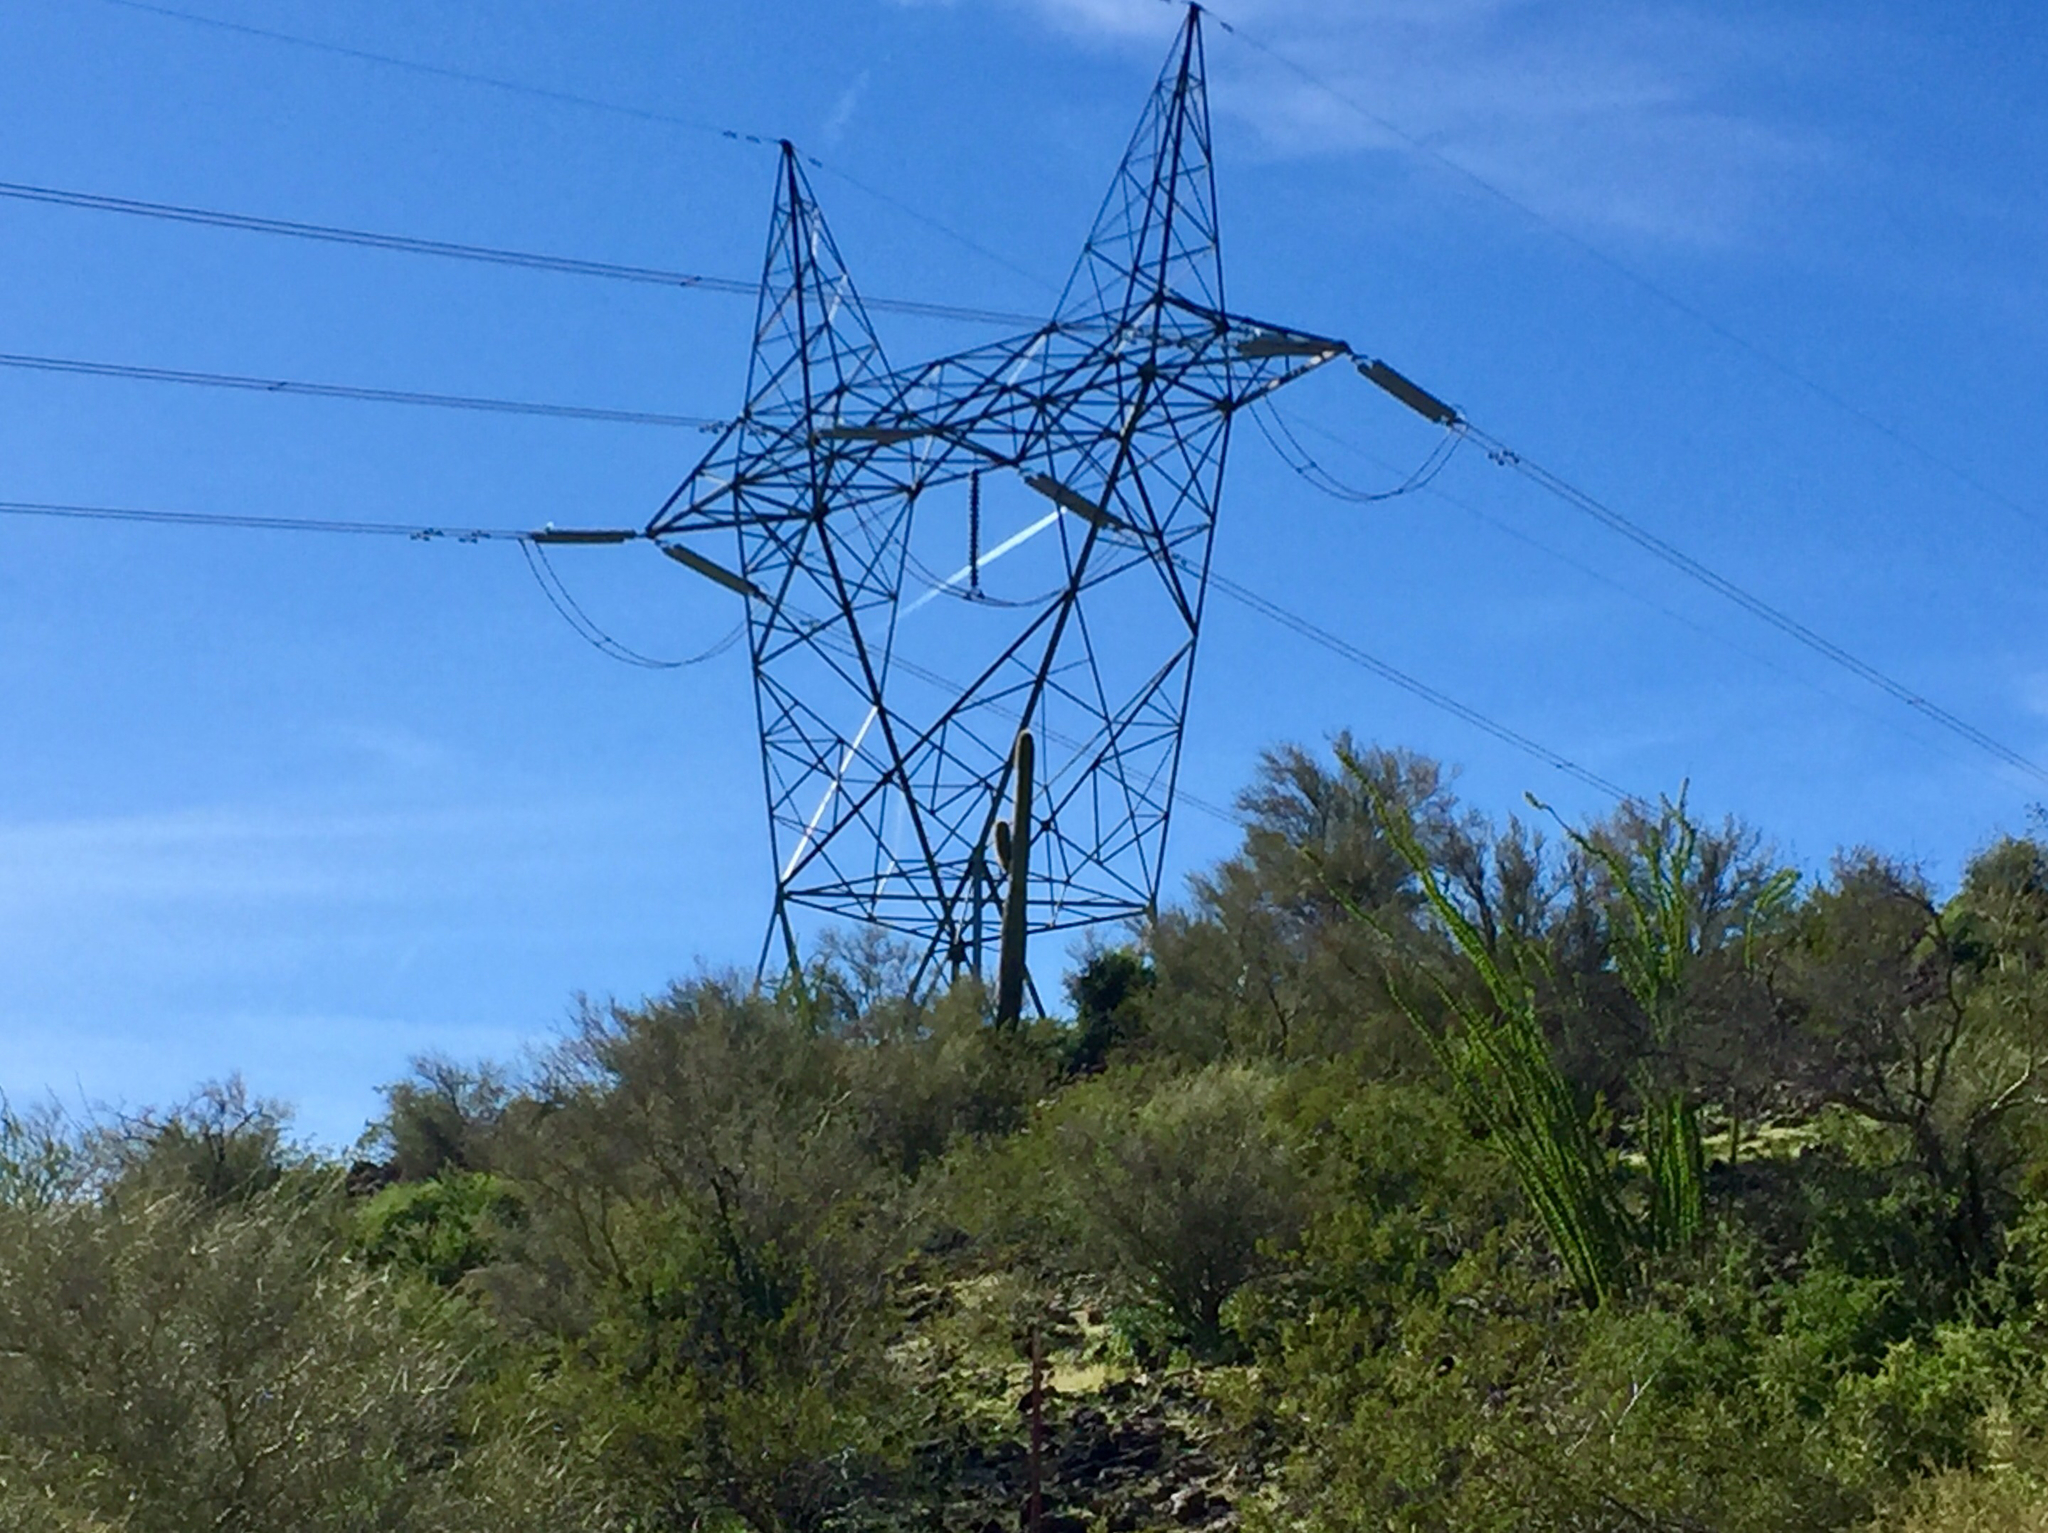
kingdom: Plantae
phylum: Tracheophyta
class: Magnoliopsida
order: Fabales
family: Fabaceae
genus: Parkinsonia
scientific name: Parkinsonia microphylla
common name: Yellow paloverde
